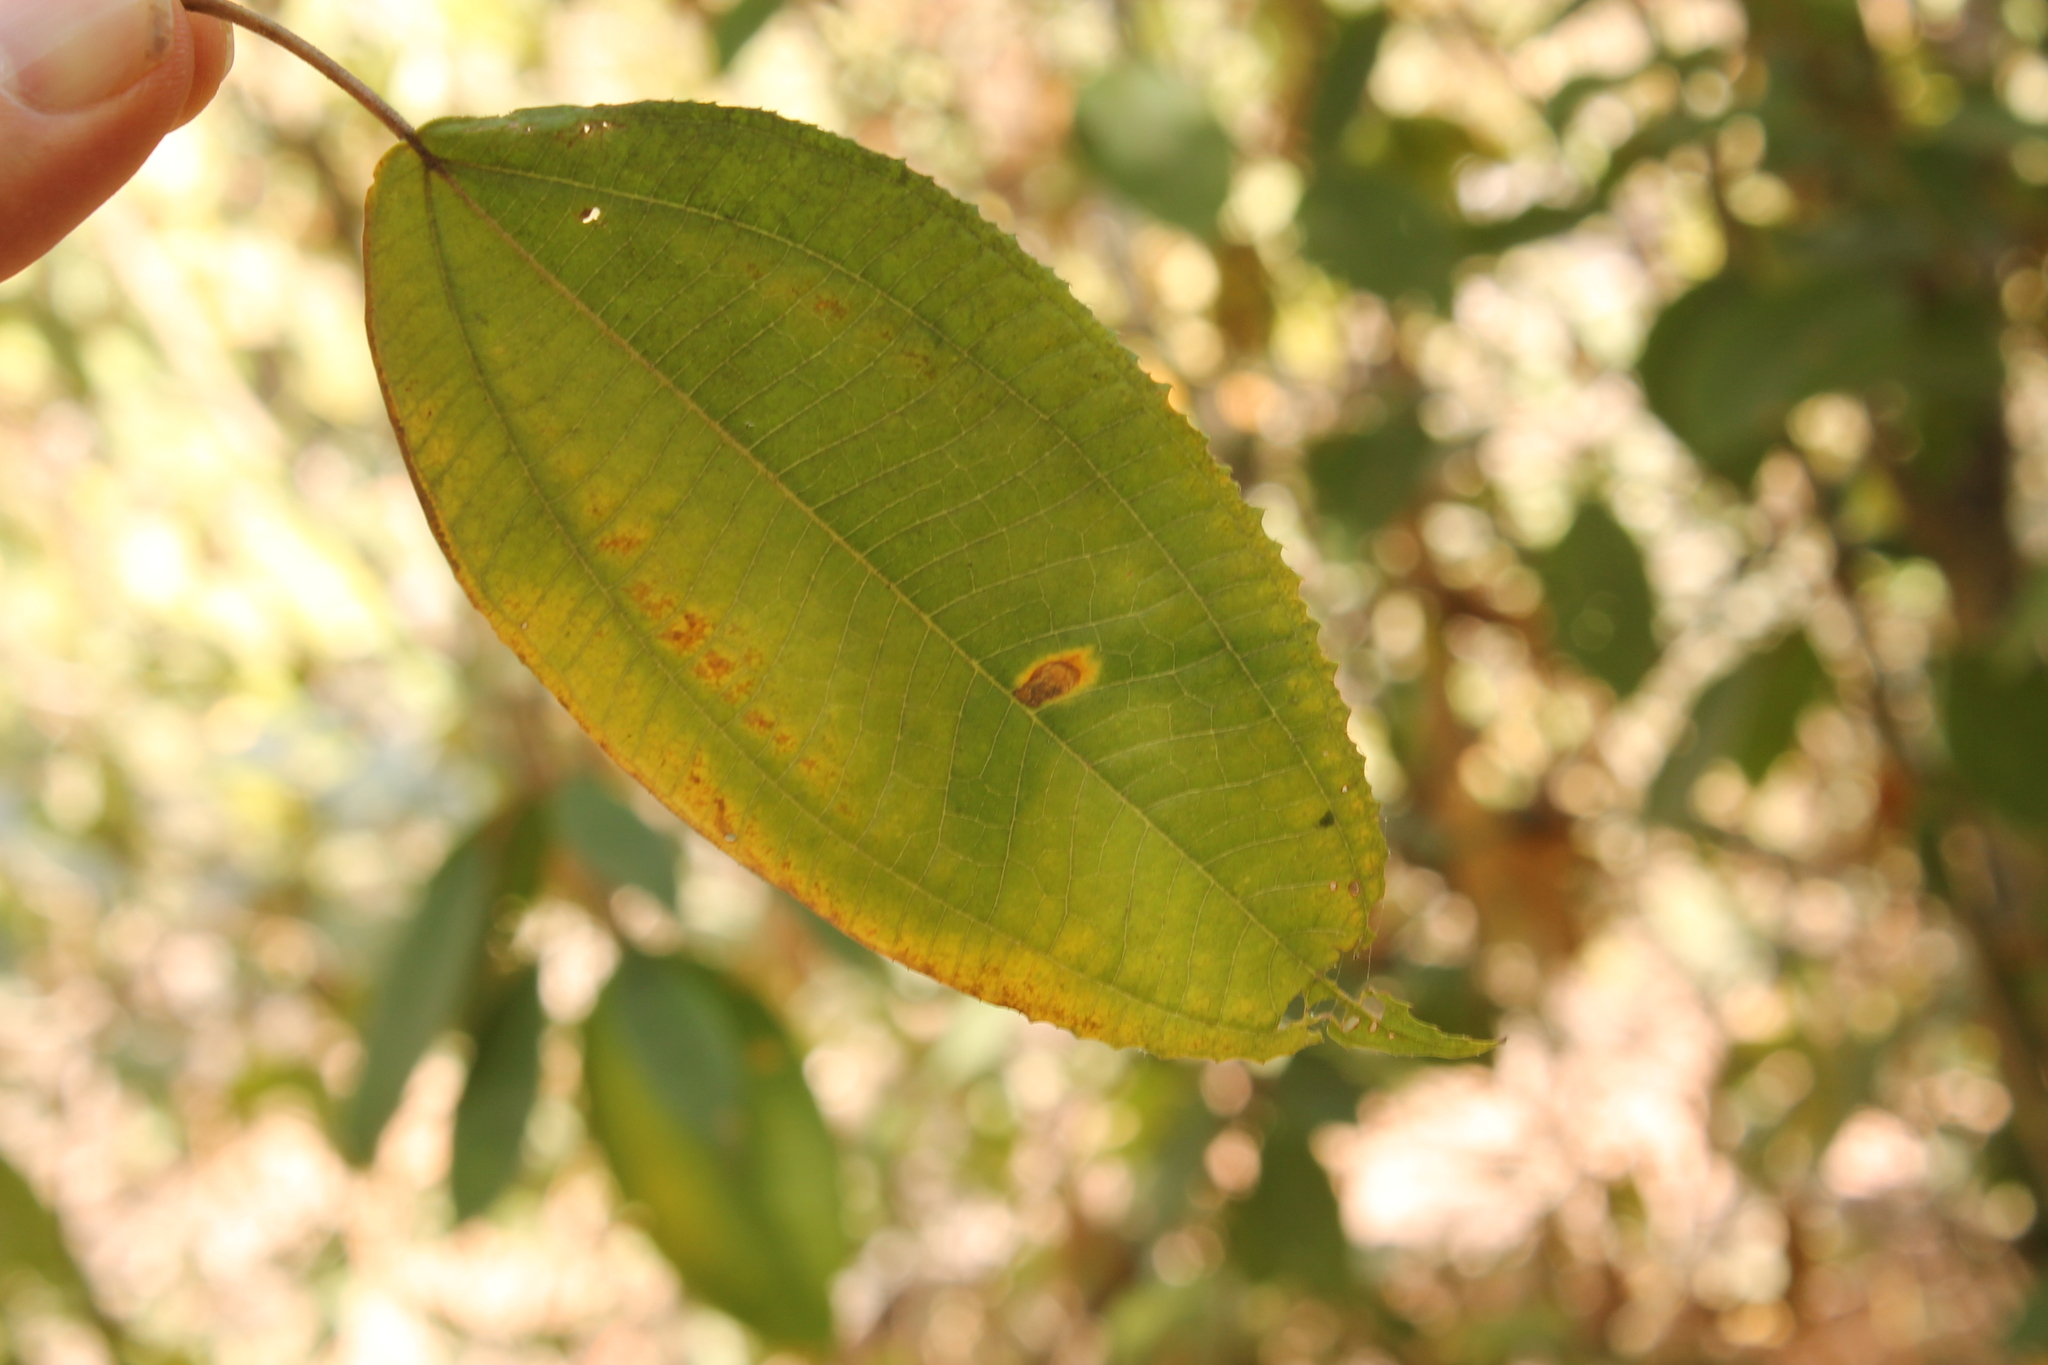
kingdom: Plantae
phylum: Tracheophyta
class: Magnoliopsida
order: Myrtales
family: Melastomataceae
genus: Miconia
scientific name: Miconia xalapensis
